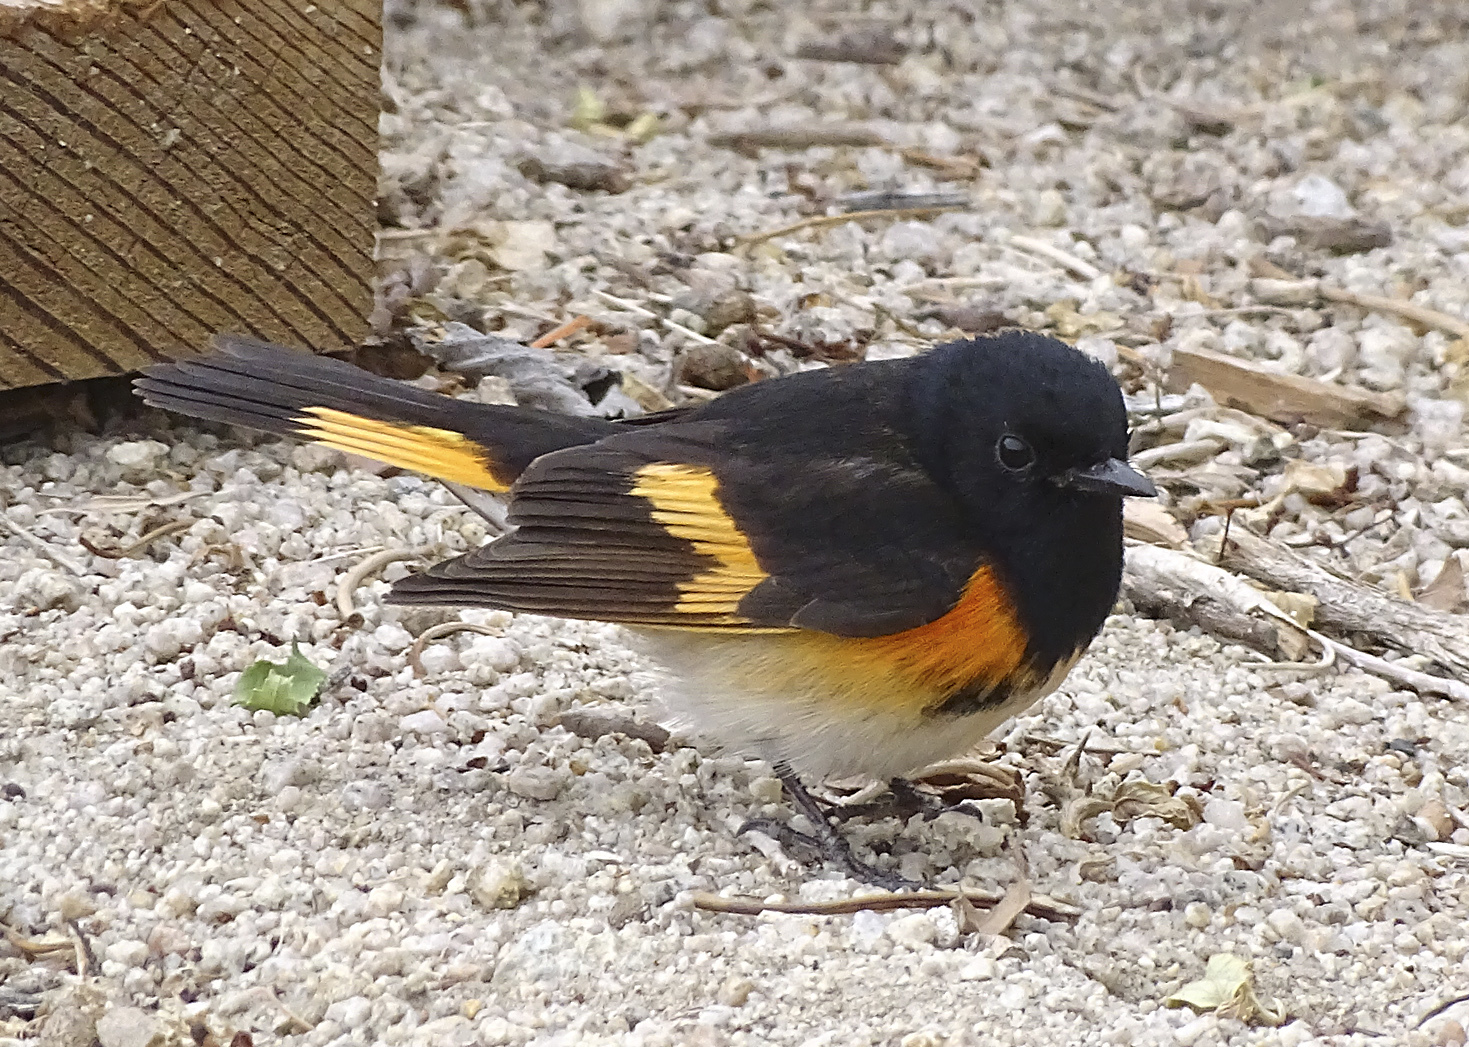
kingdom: Animalia
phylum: Chordata
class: Aves
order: Passeriformes
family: Parulidae
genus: Setophaga
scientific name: Setophaga ruticilla
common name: American redstart
